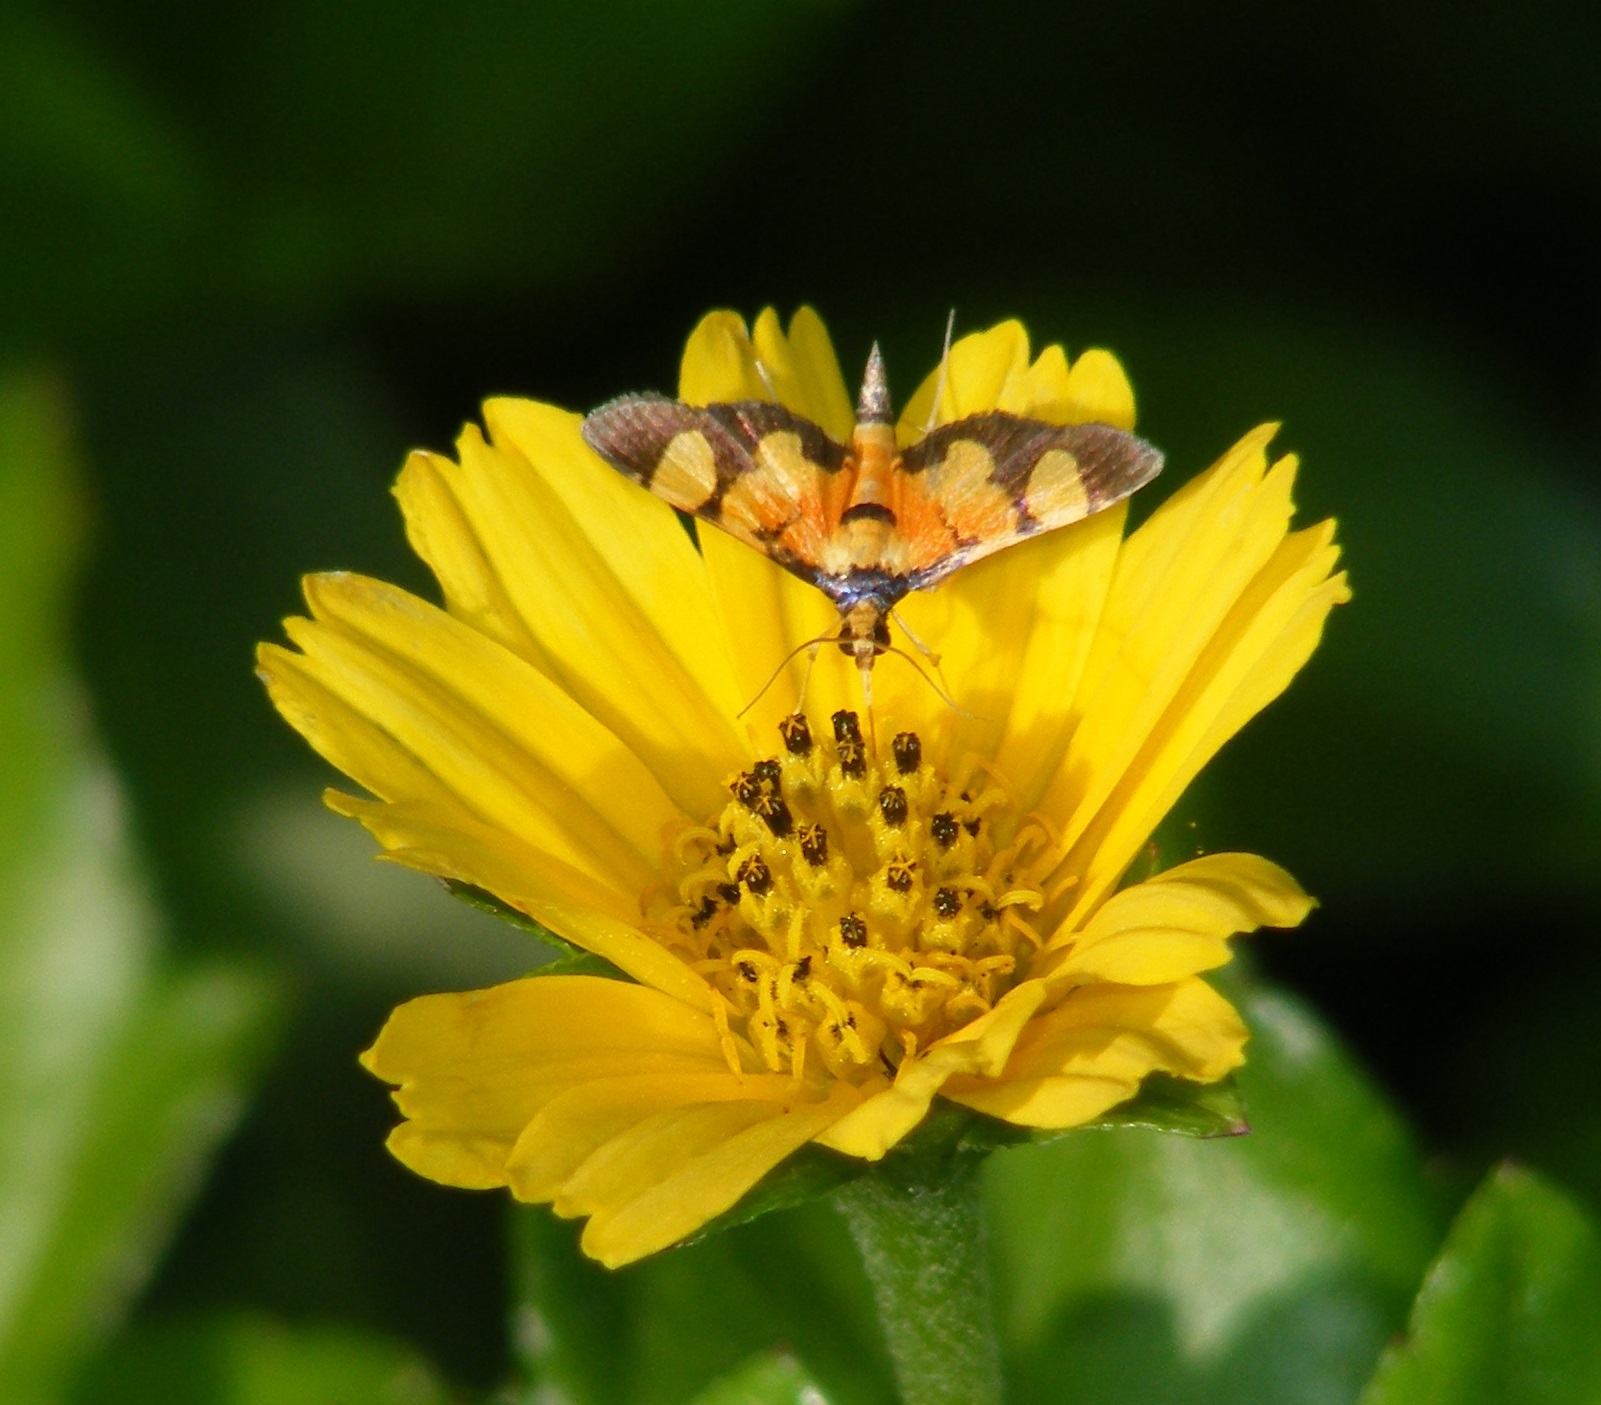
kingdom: Animalia
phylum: Arthropoda
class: Insecta
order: Lepidoptera
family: Crambidae
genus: Aethaloessa
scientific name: Aethaloessa calidalis
